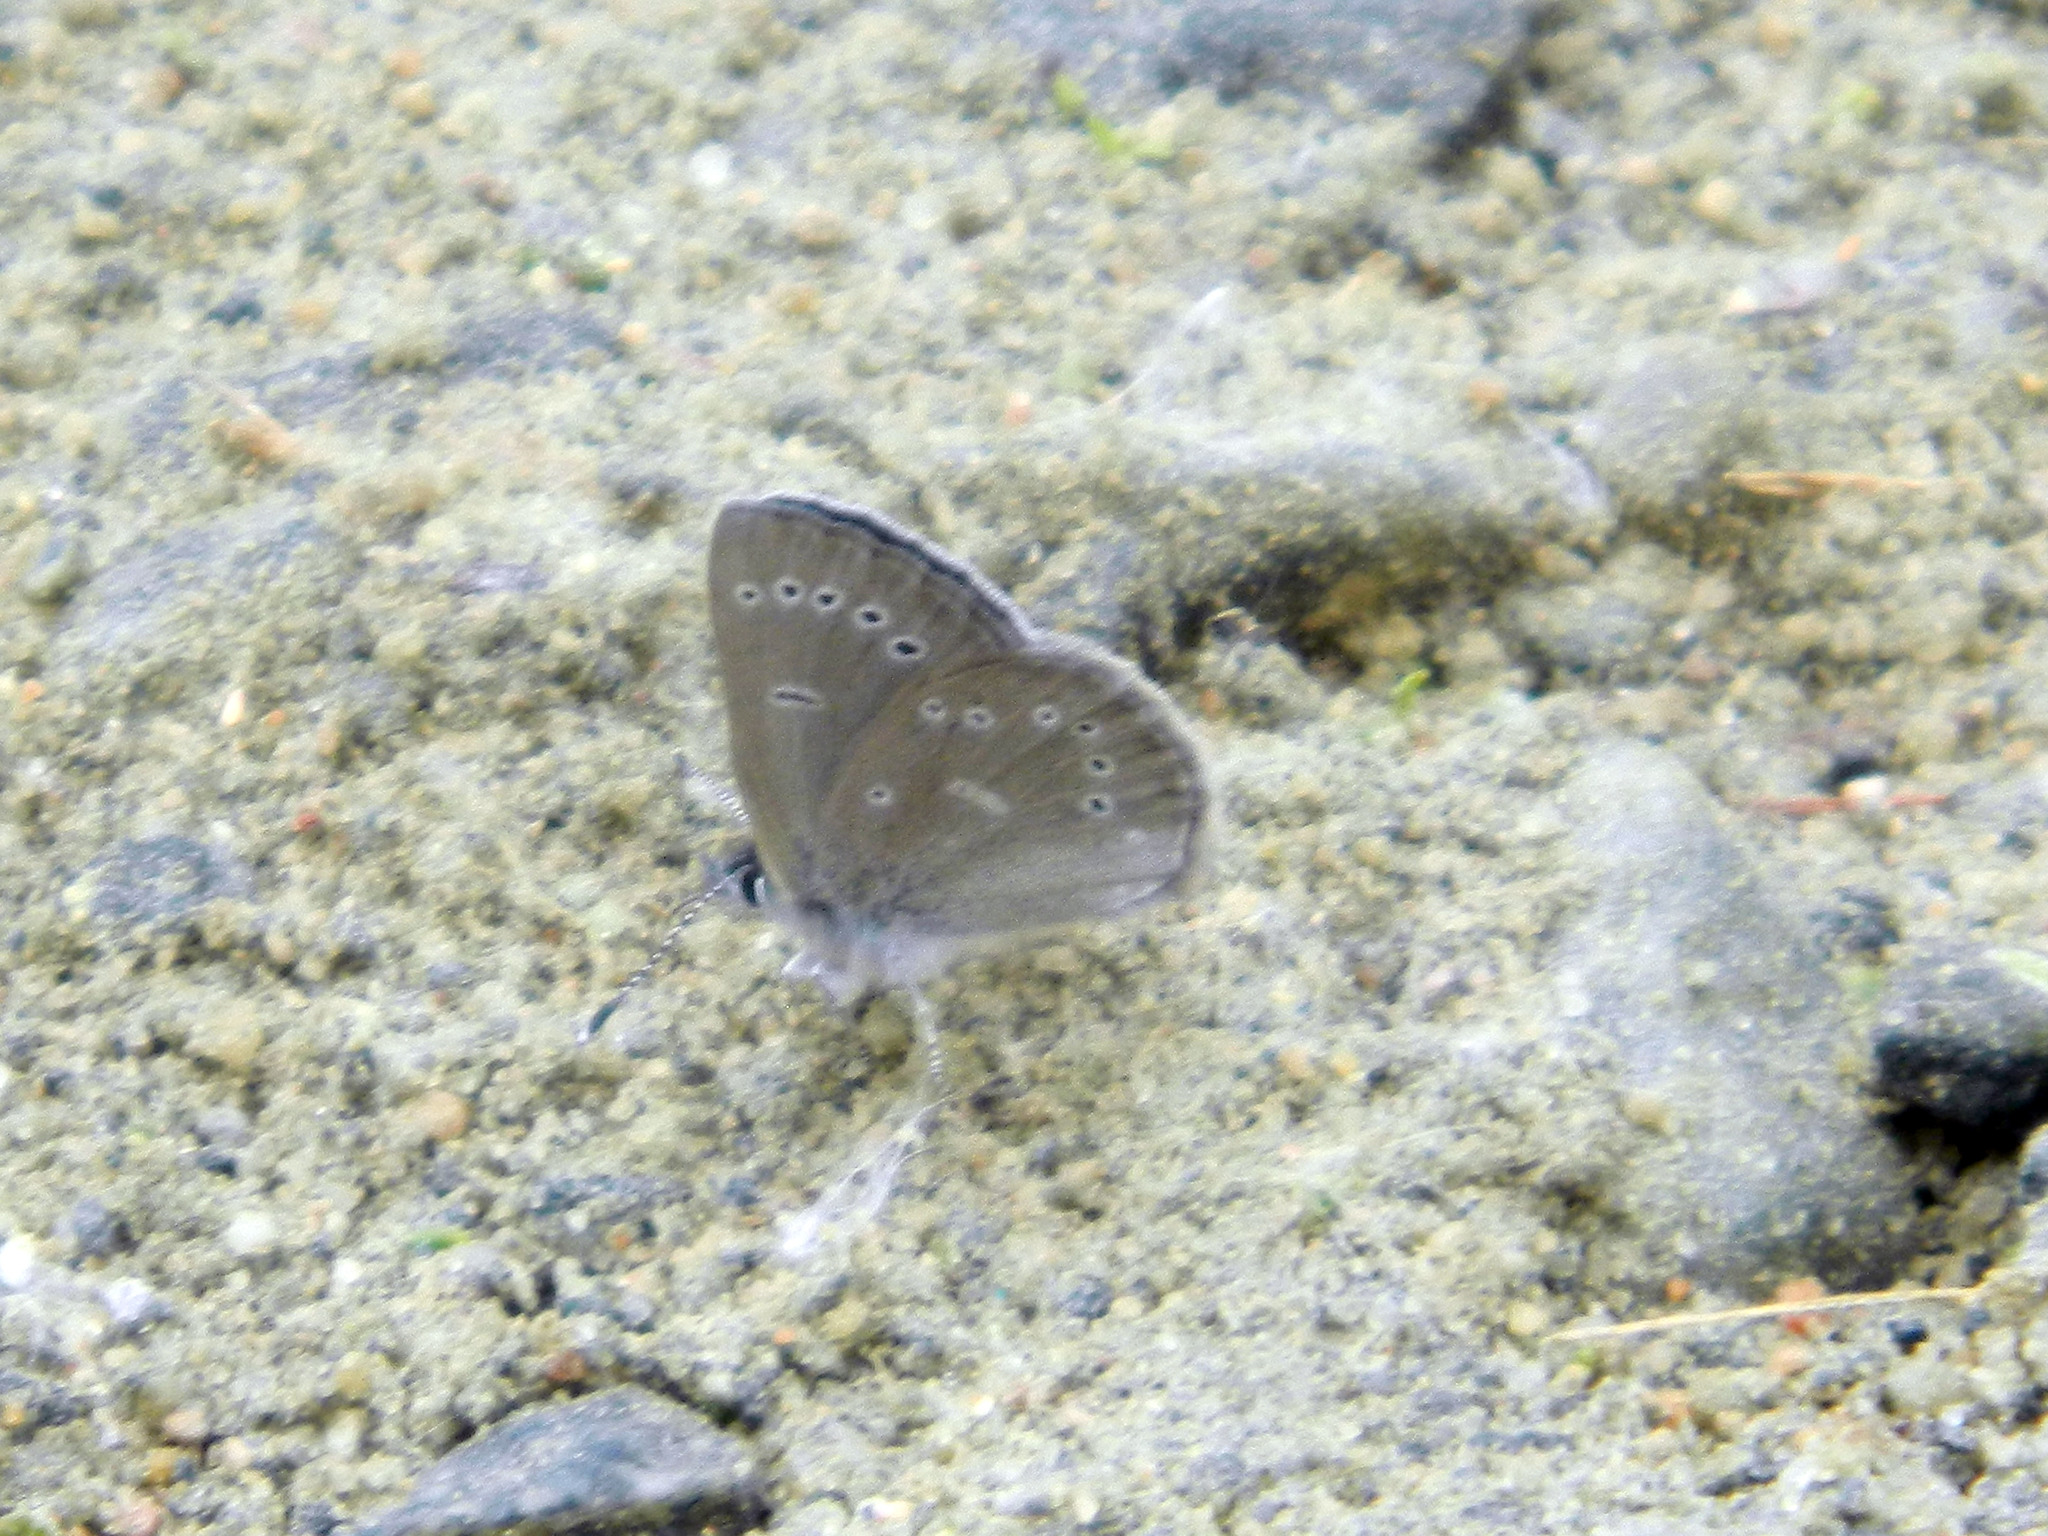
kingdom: Animalia
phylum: Arthropoda
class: Insecta
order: Lepidoptera
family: Lycaenidae
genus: Glaucopsyche
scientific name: Glaucopsyche lygdamus
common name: Silvery blue
